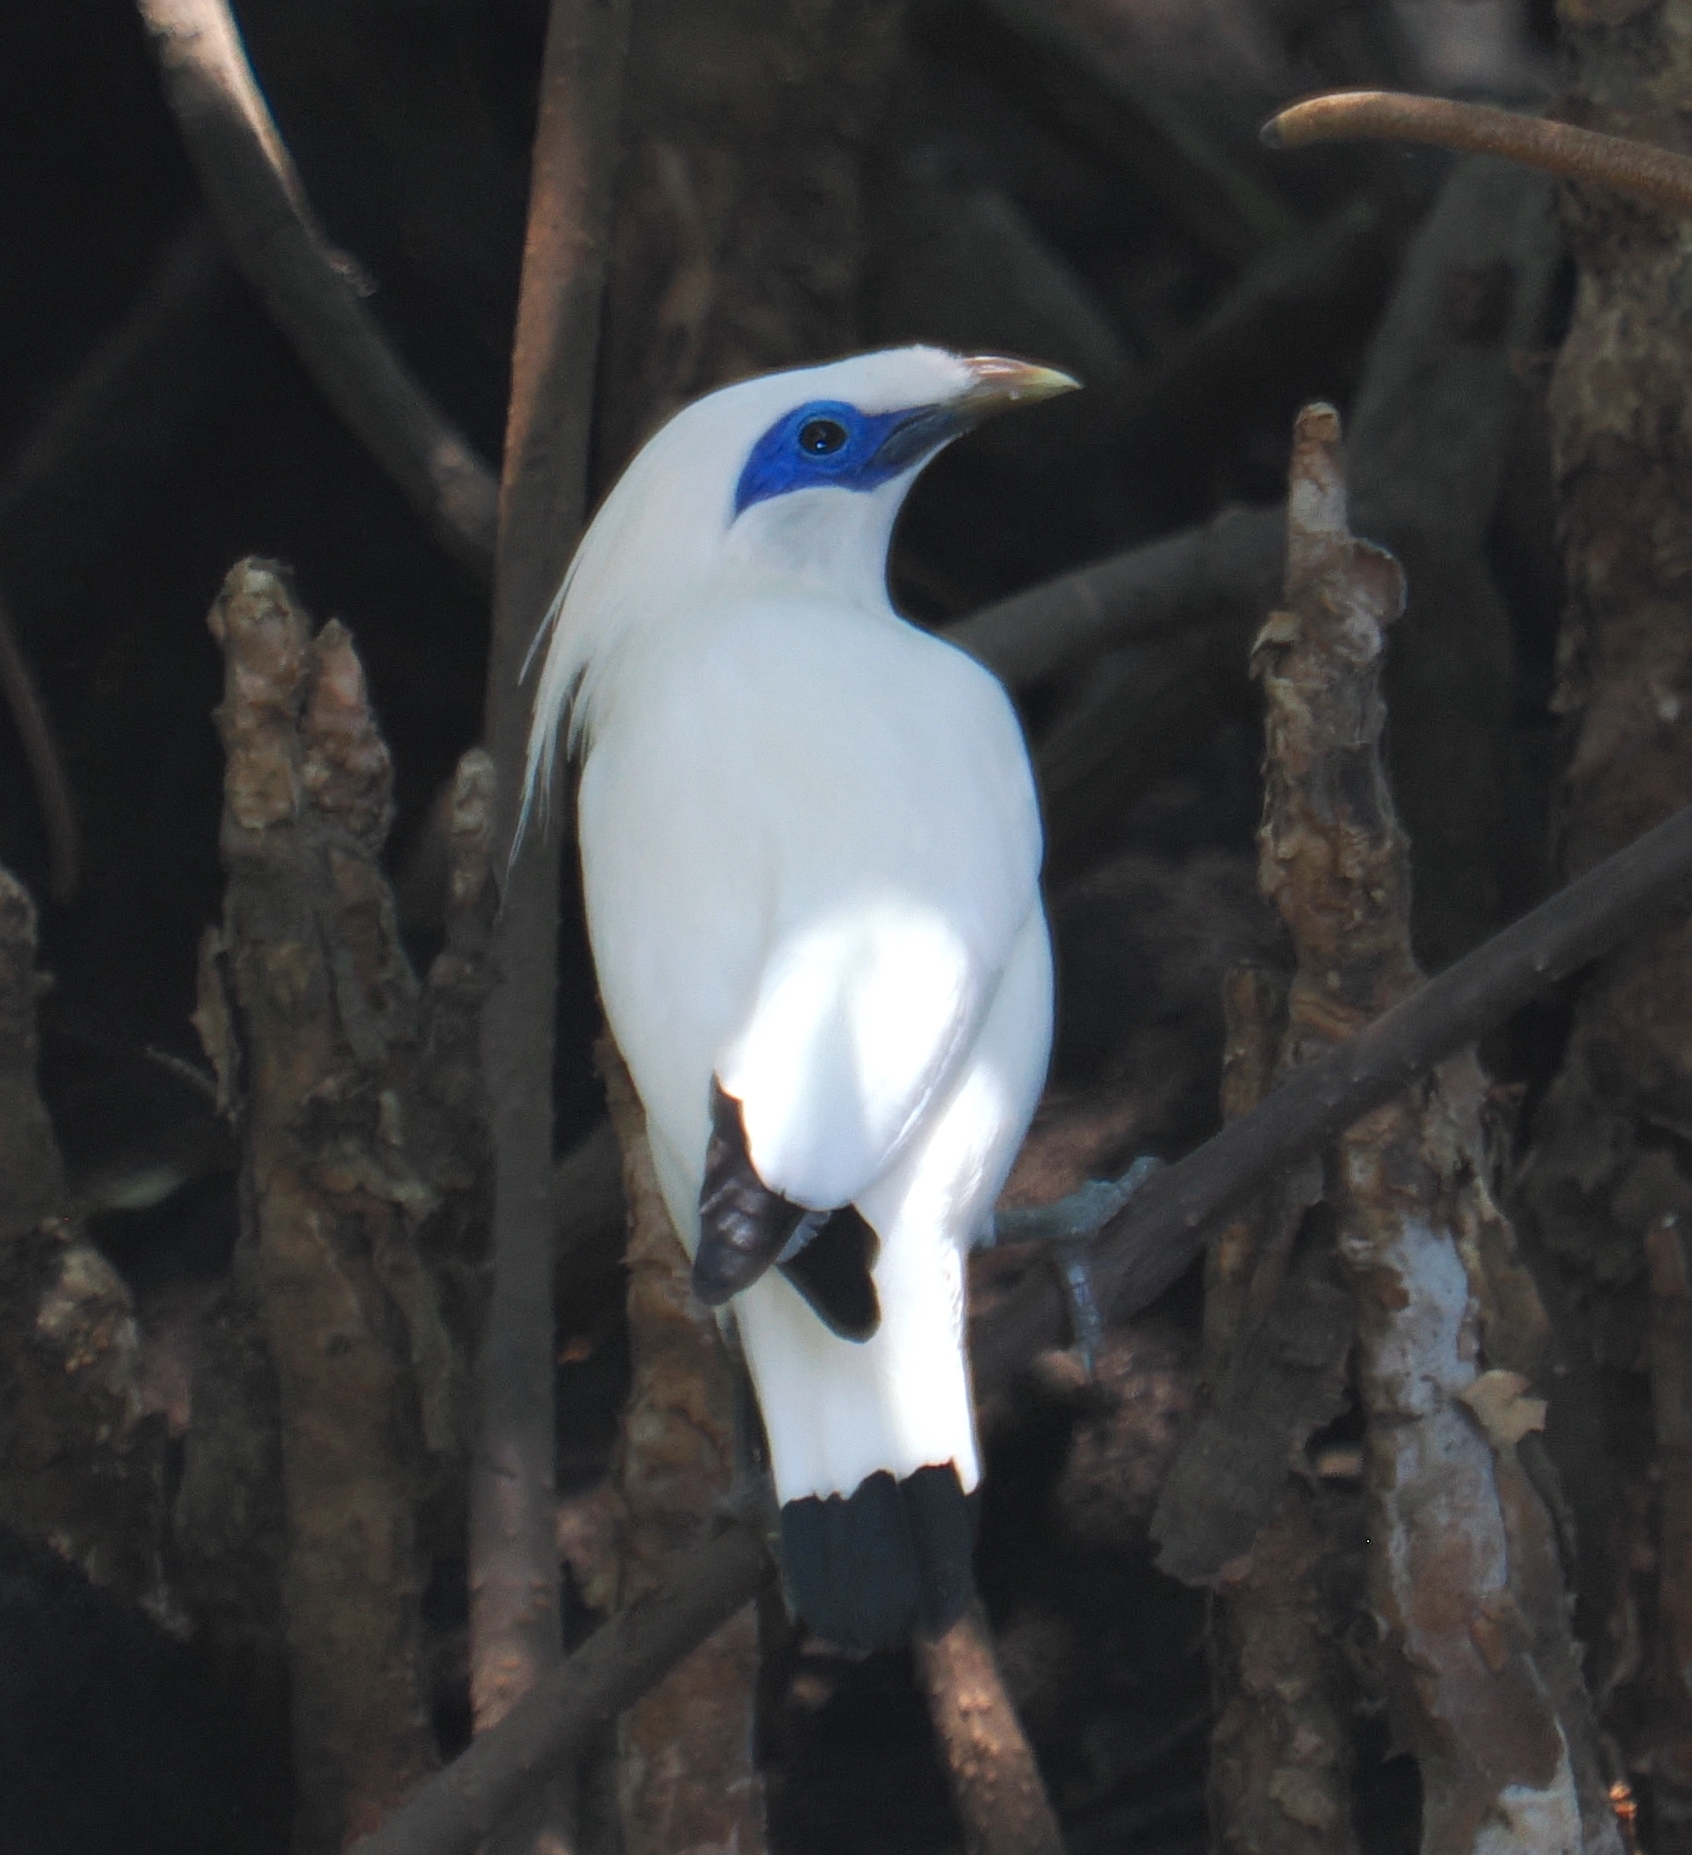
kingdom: Animalia
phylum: Chordata
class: Aves
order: Passeriformes
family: Sturnidae
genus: Leucopsar
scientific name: Leucopsar rothschildi
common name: Bali myna
